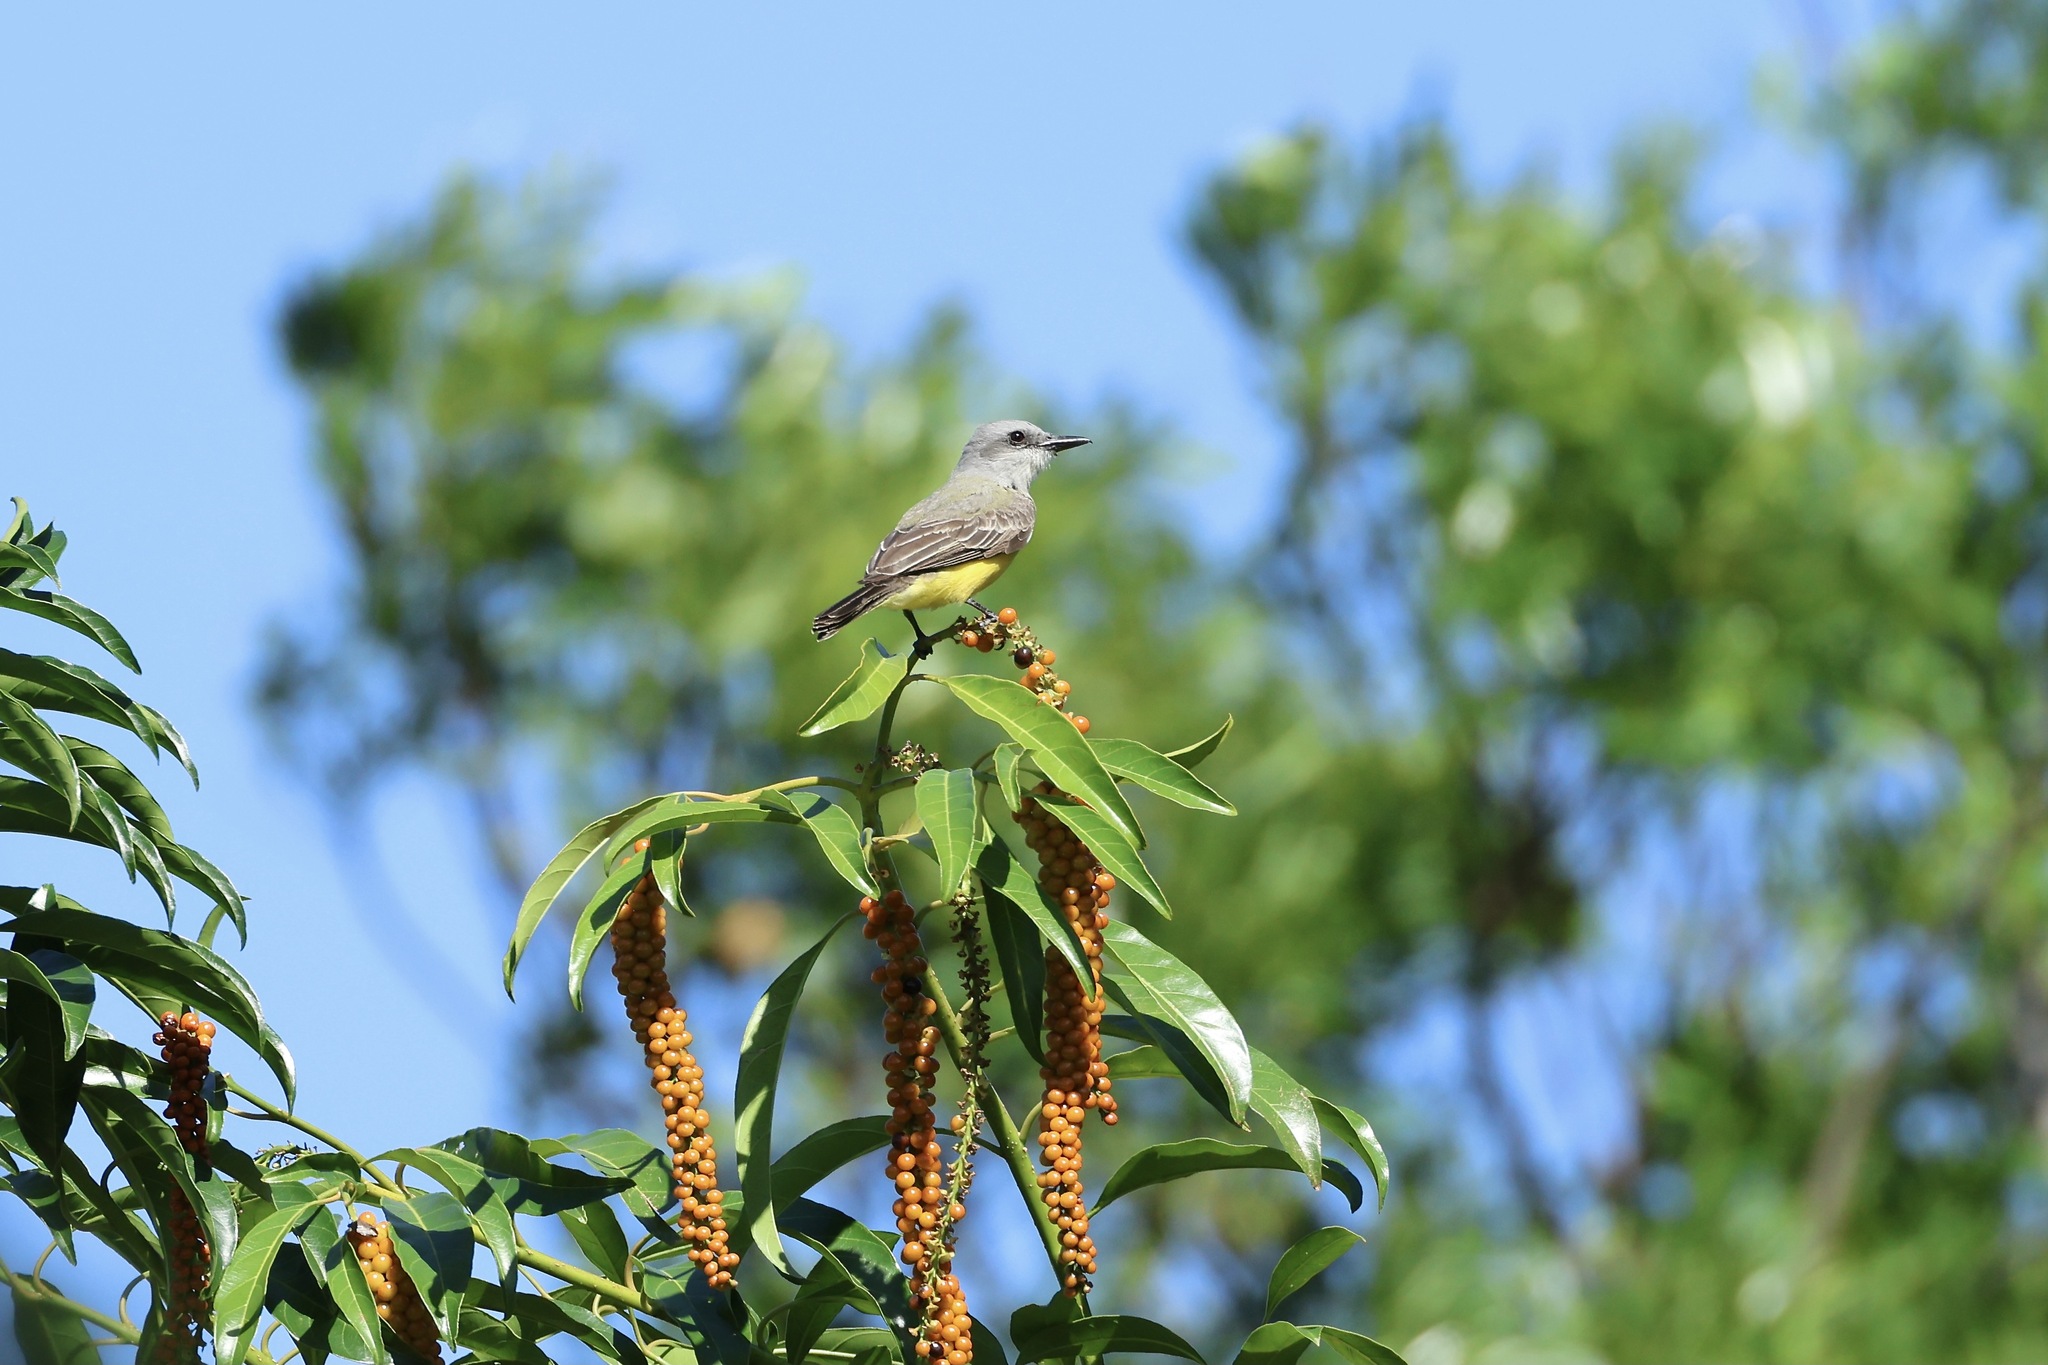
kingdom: Animalia
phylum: Chordata
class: Aves
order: Passeriformes
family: Tyrannidae
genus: Tyrannus
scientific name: Tyrannus melancholicus
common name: Tropical kingbird
